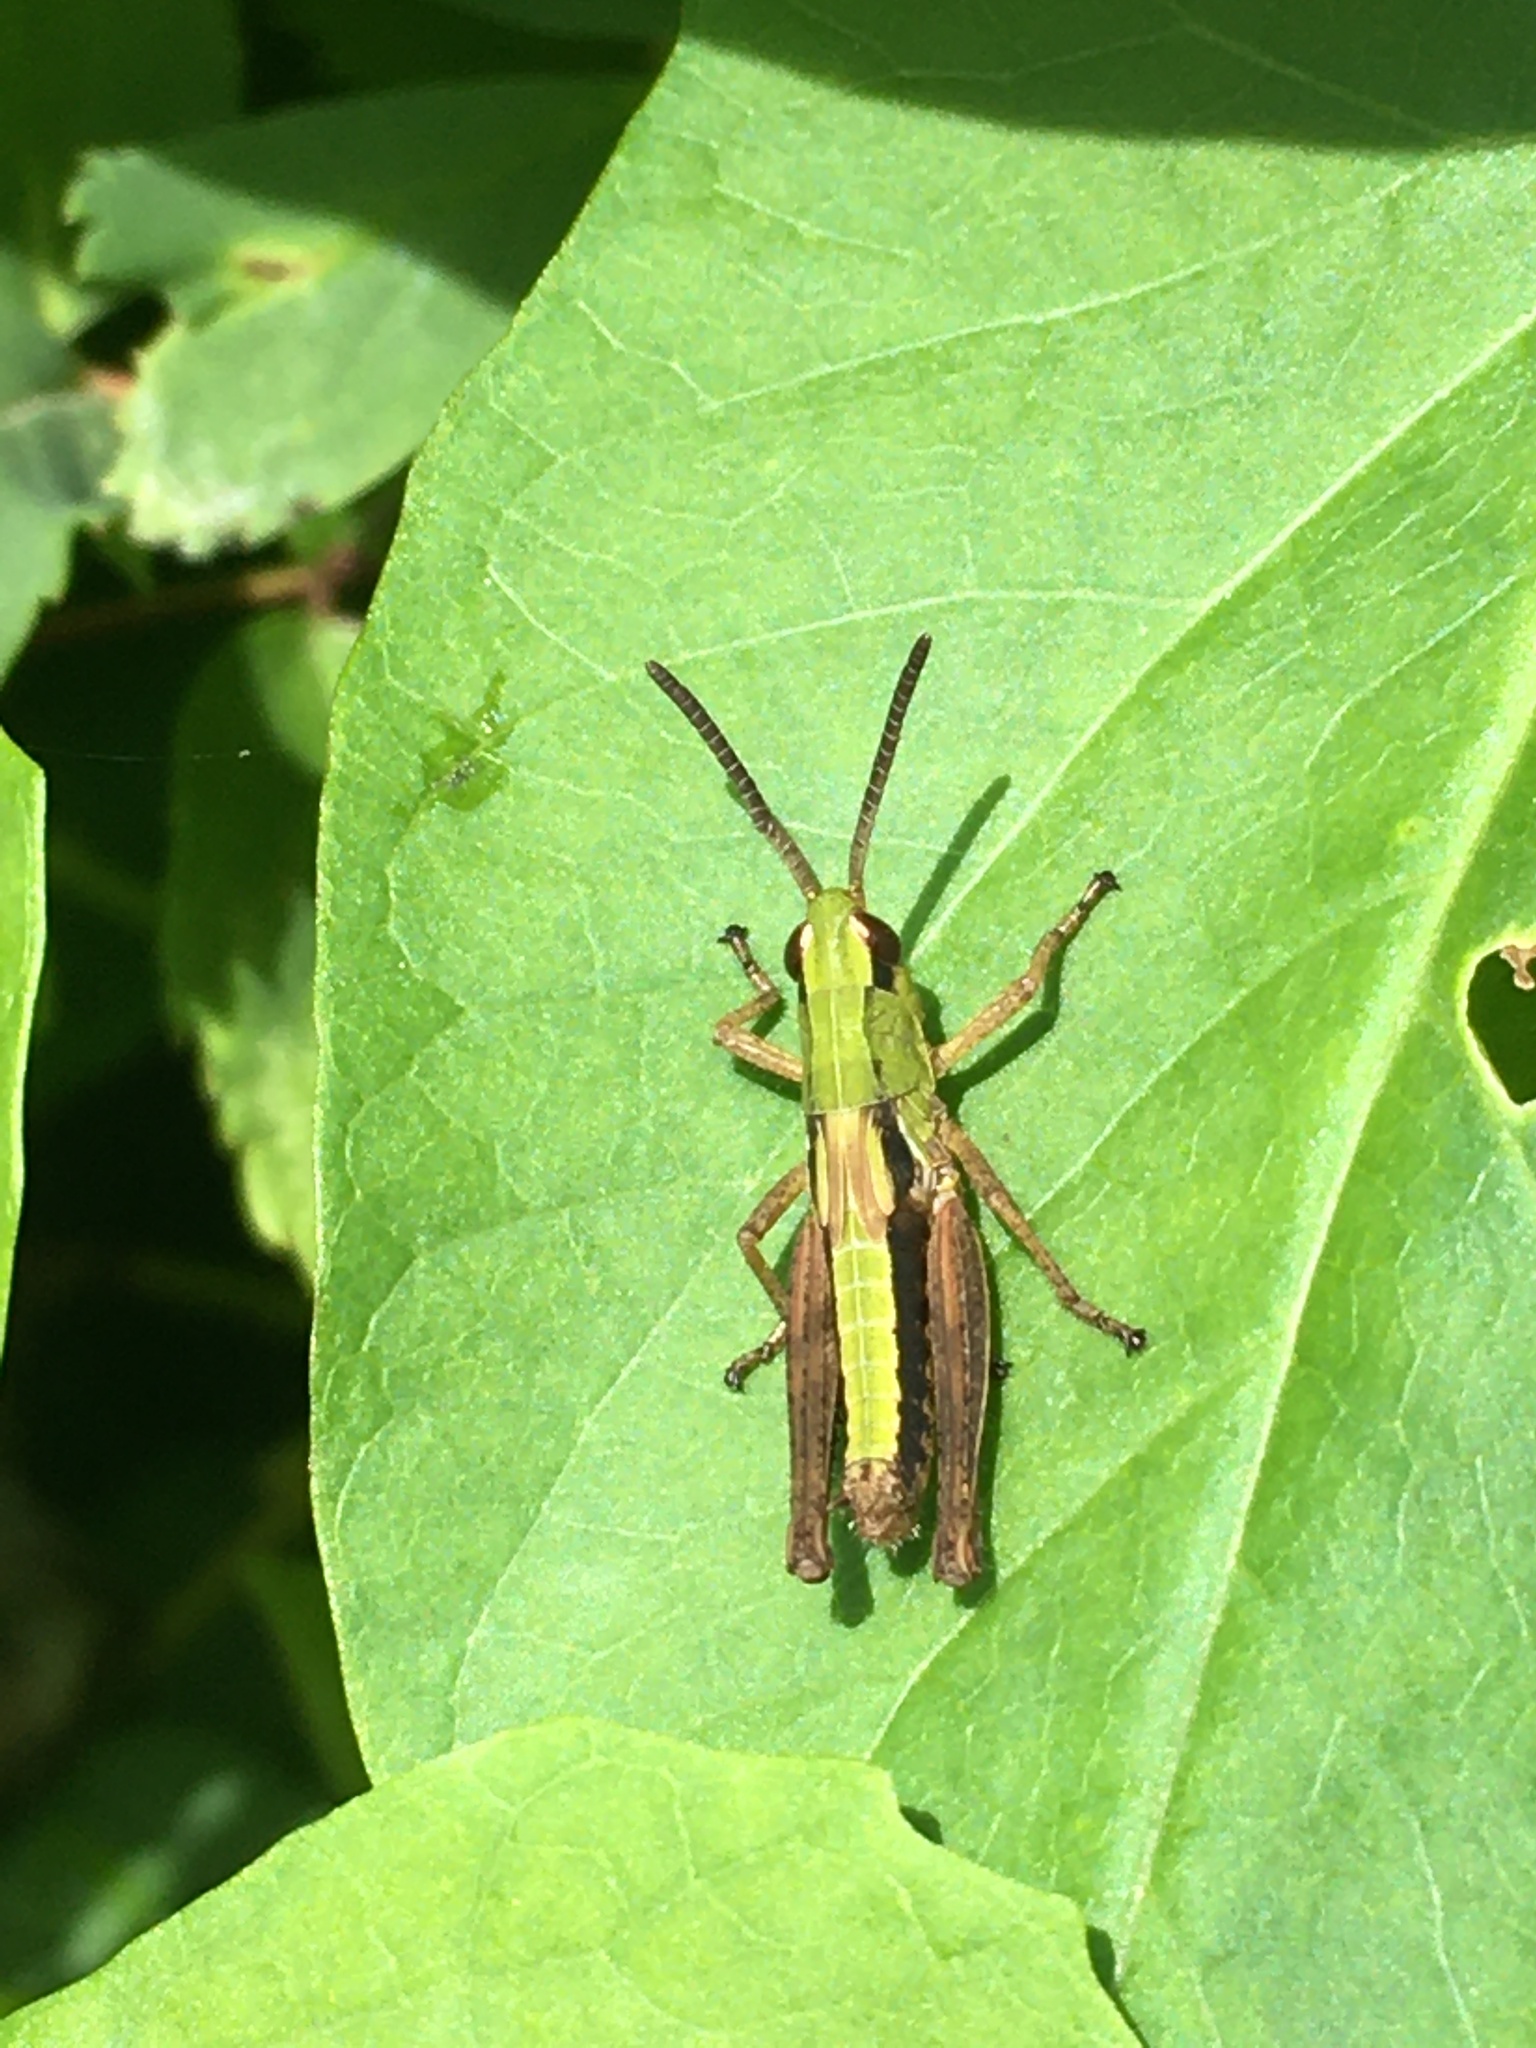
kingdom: Animalia
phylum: Arthropoda
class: Insecta
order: Orthoptera
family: Acrididae
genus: Pseudochorthippus
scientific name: Pseudochorthippus parallelus
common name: Meadow grasshopper
